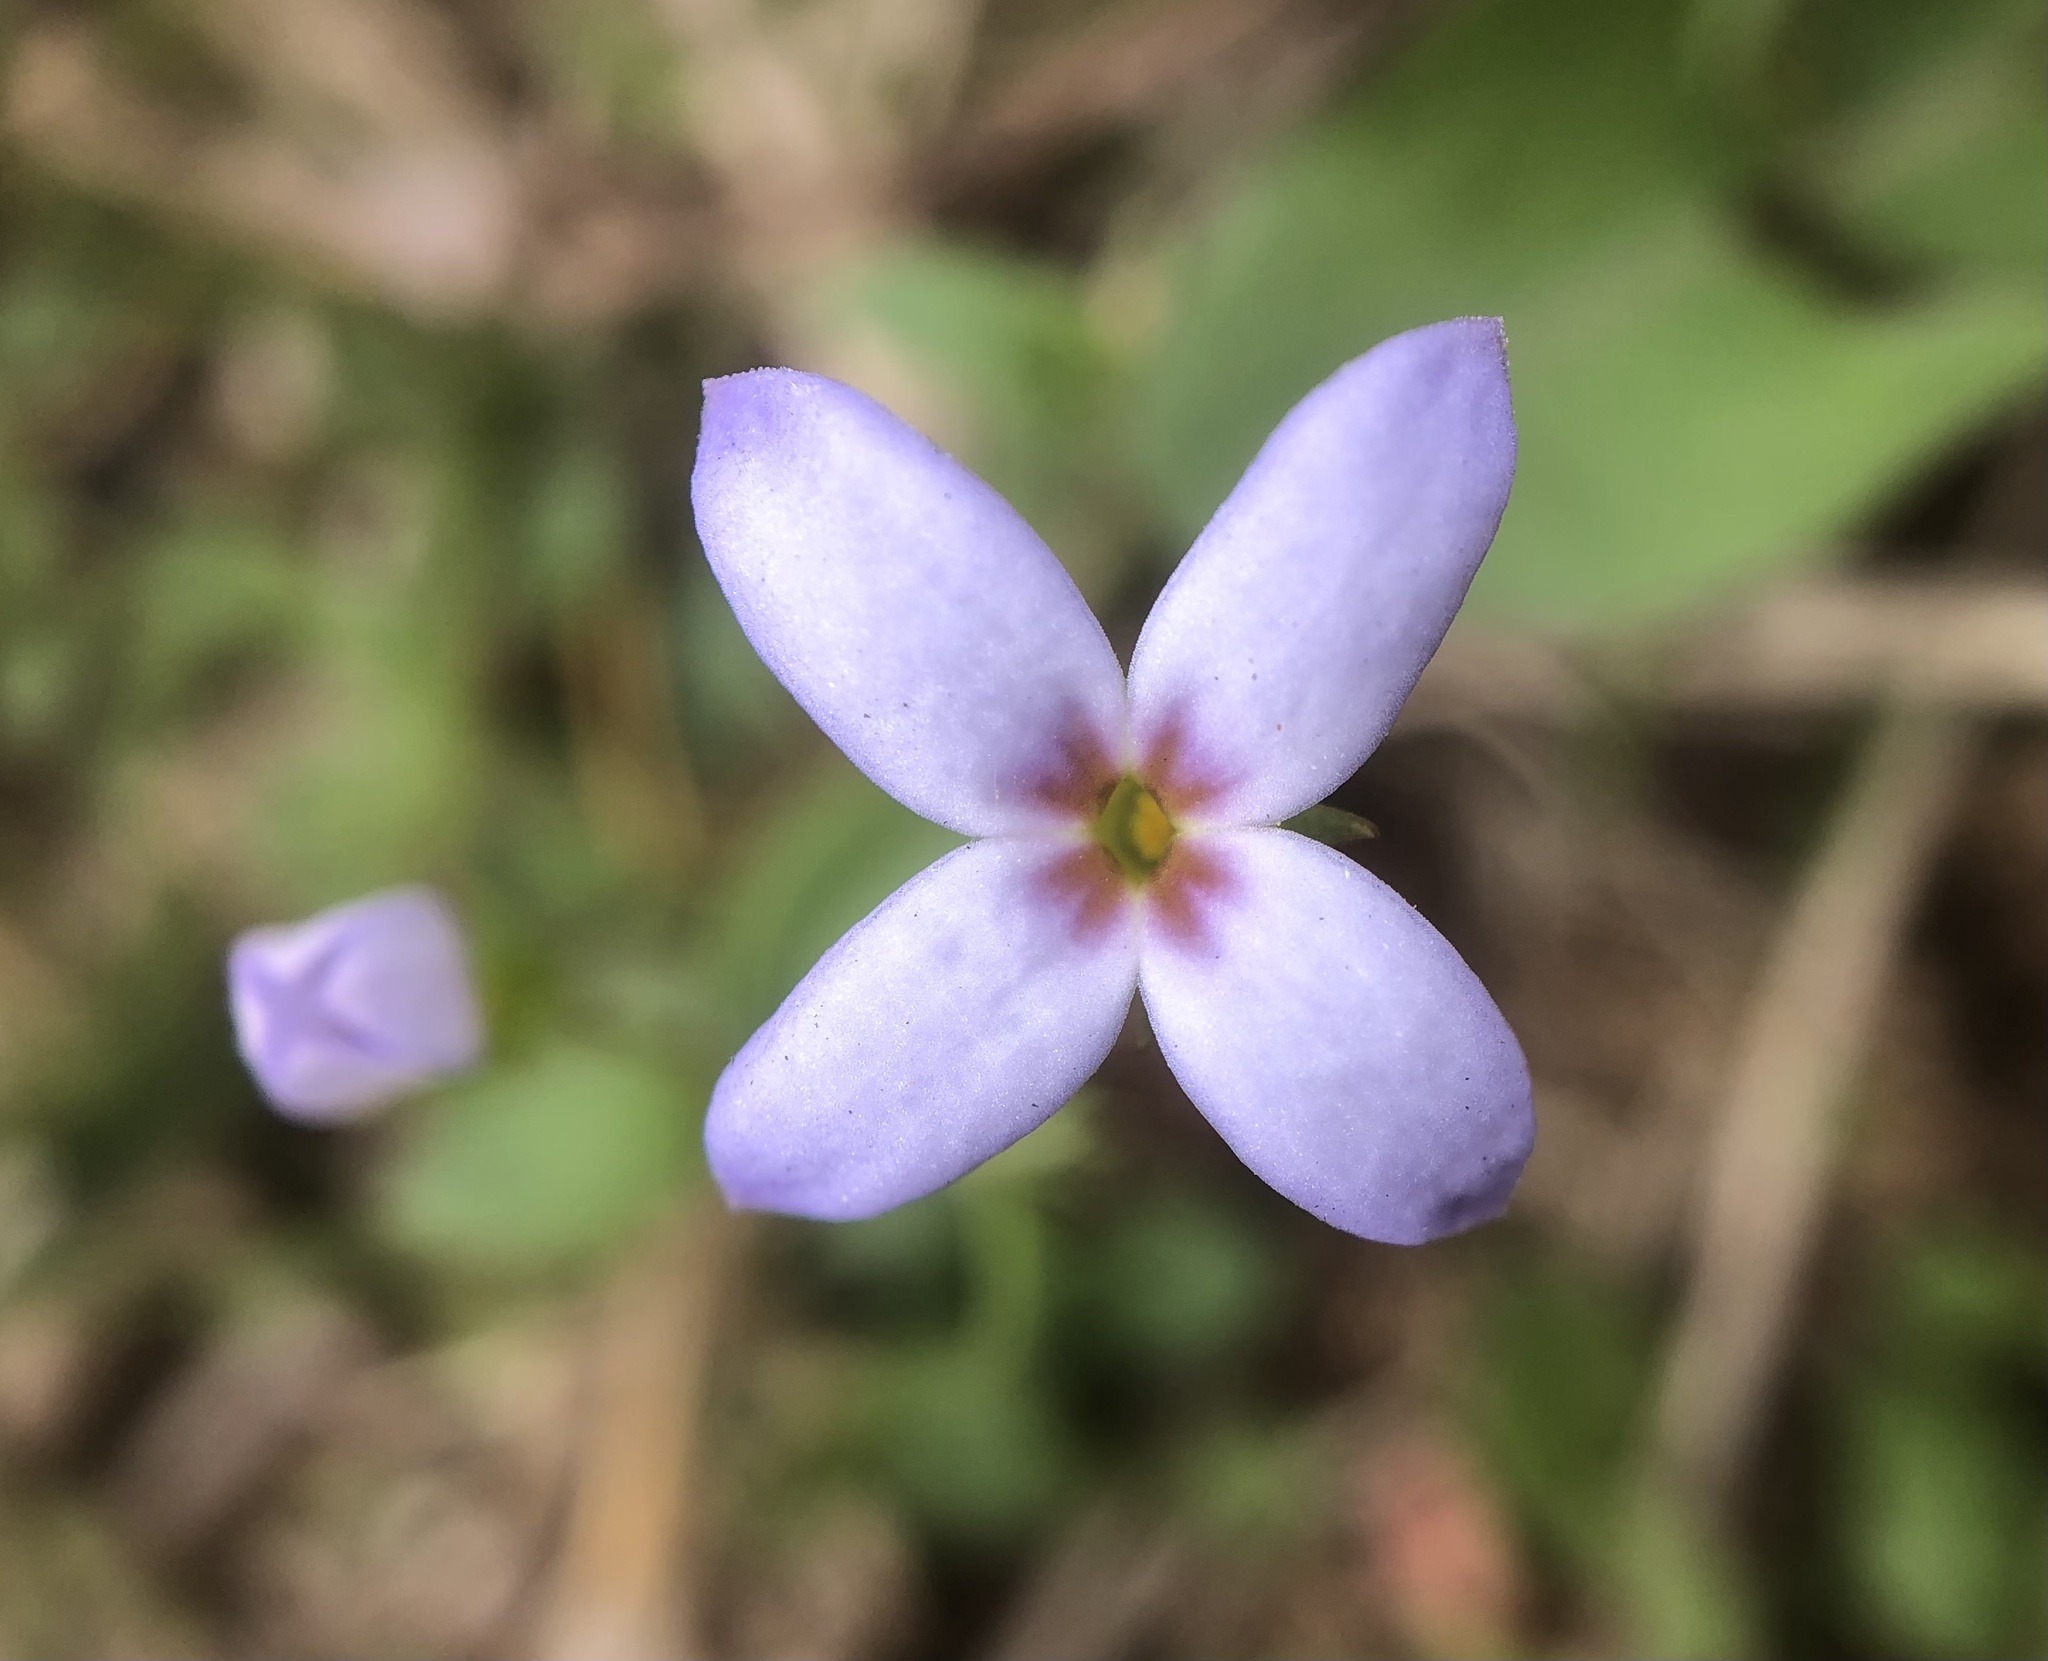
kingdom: Plantae
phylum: Tracheophyta
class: Magnoliopsida
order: Gentianales
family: Rubiaceae
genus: Houstonia
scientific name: Houstonia pusilla
